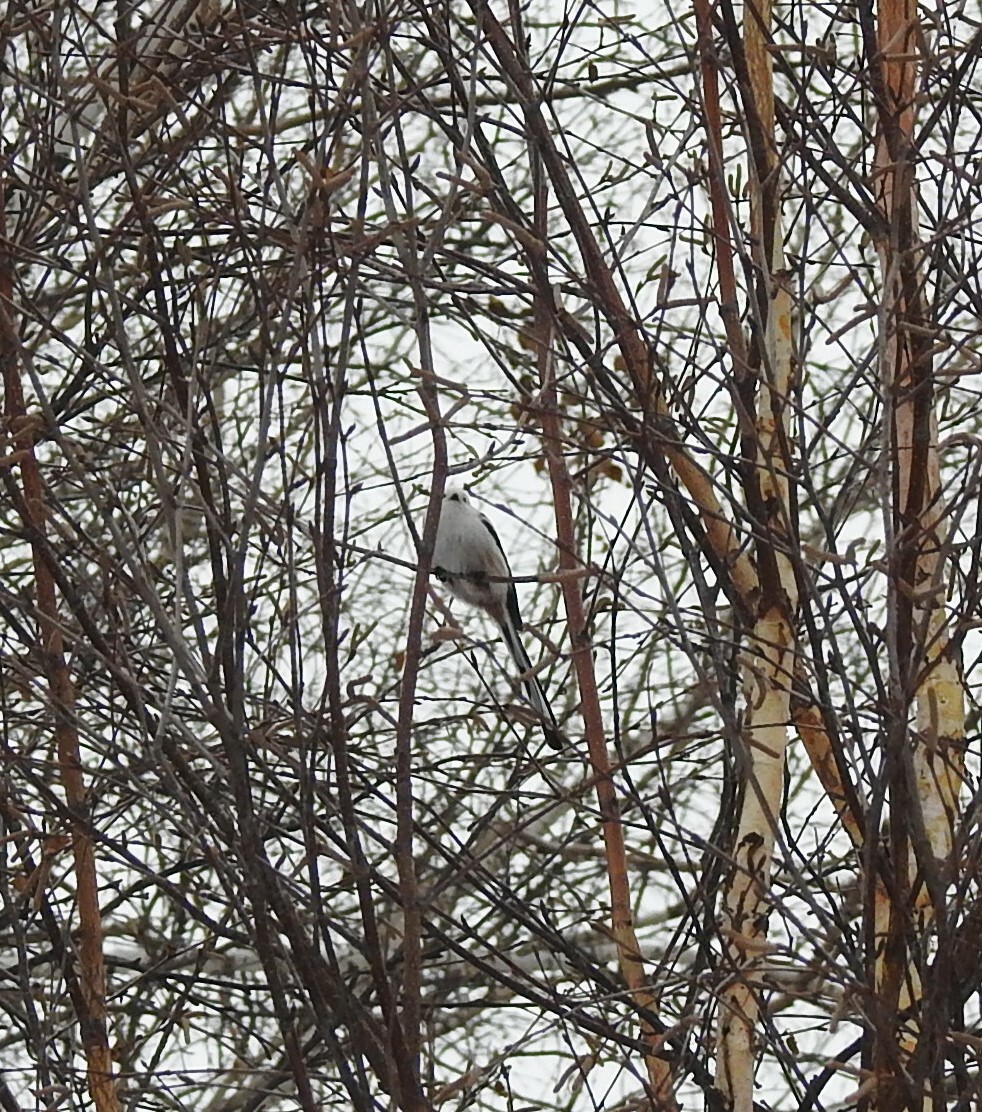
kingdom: Animalia
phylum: Chordata
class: Aves
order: Passeriformes
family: Aegithalidae
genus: Aegithalos
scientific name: Aegithalos caudatus
